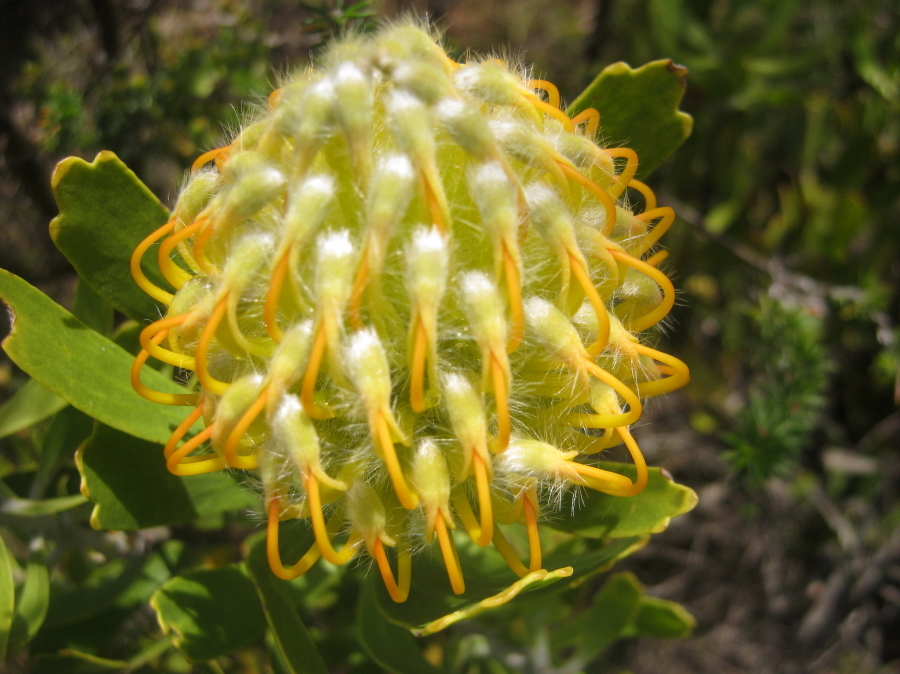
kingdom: Plantae
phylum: Tracheophyta
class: Magnoliopsida
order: Proteales
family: Proteaceae
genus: Leucospermum
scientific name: Leucospermum cuneiforme
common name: Common pincushion
